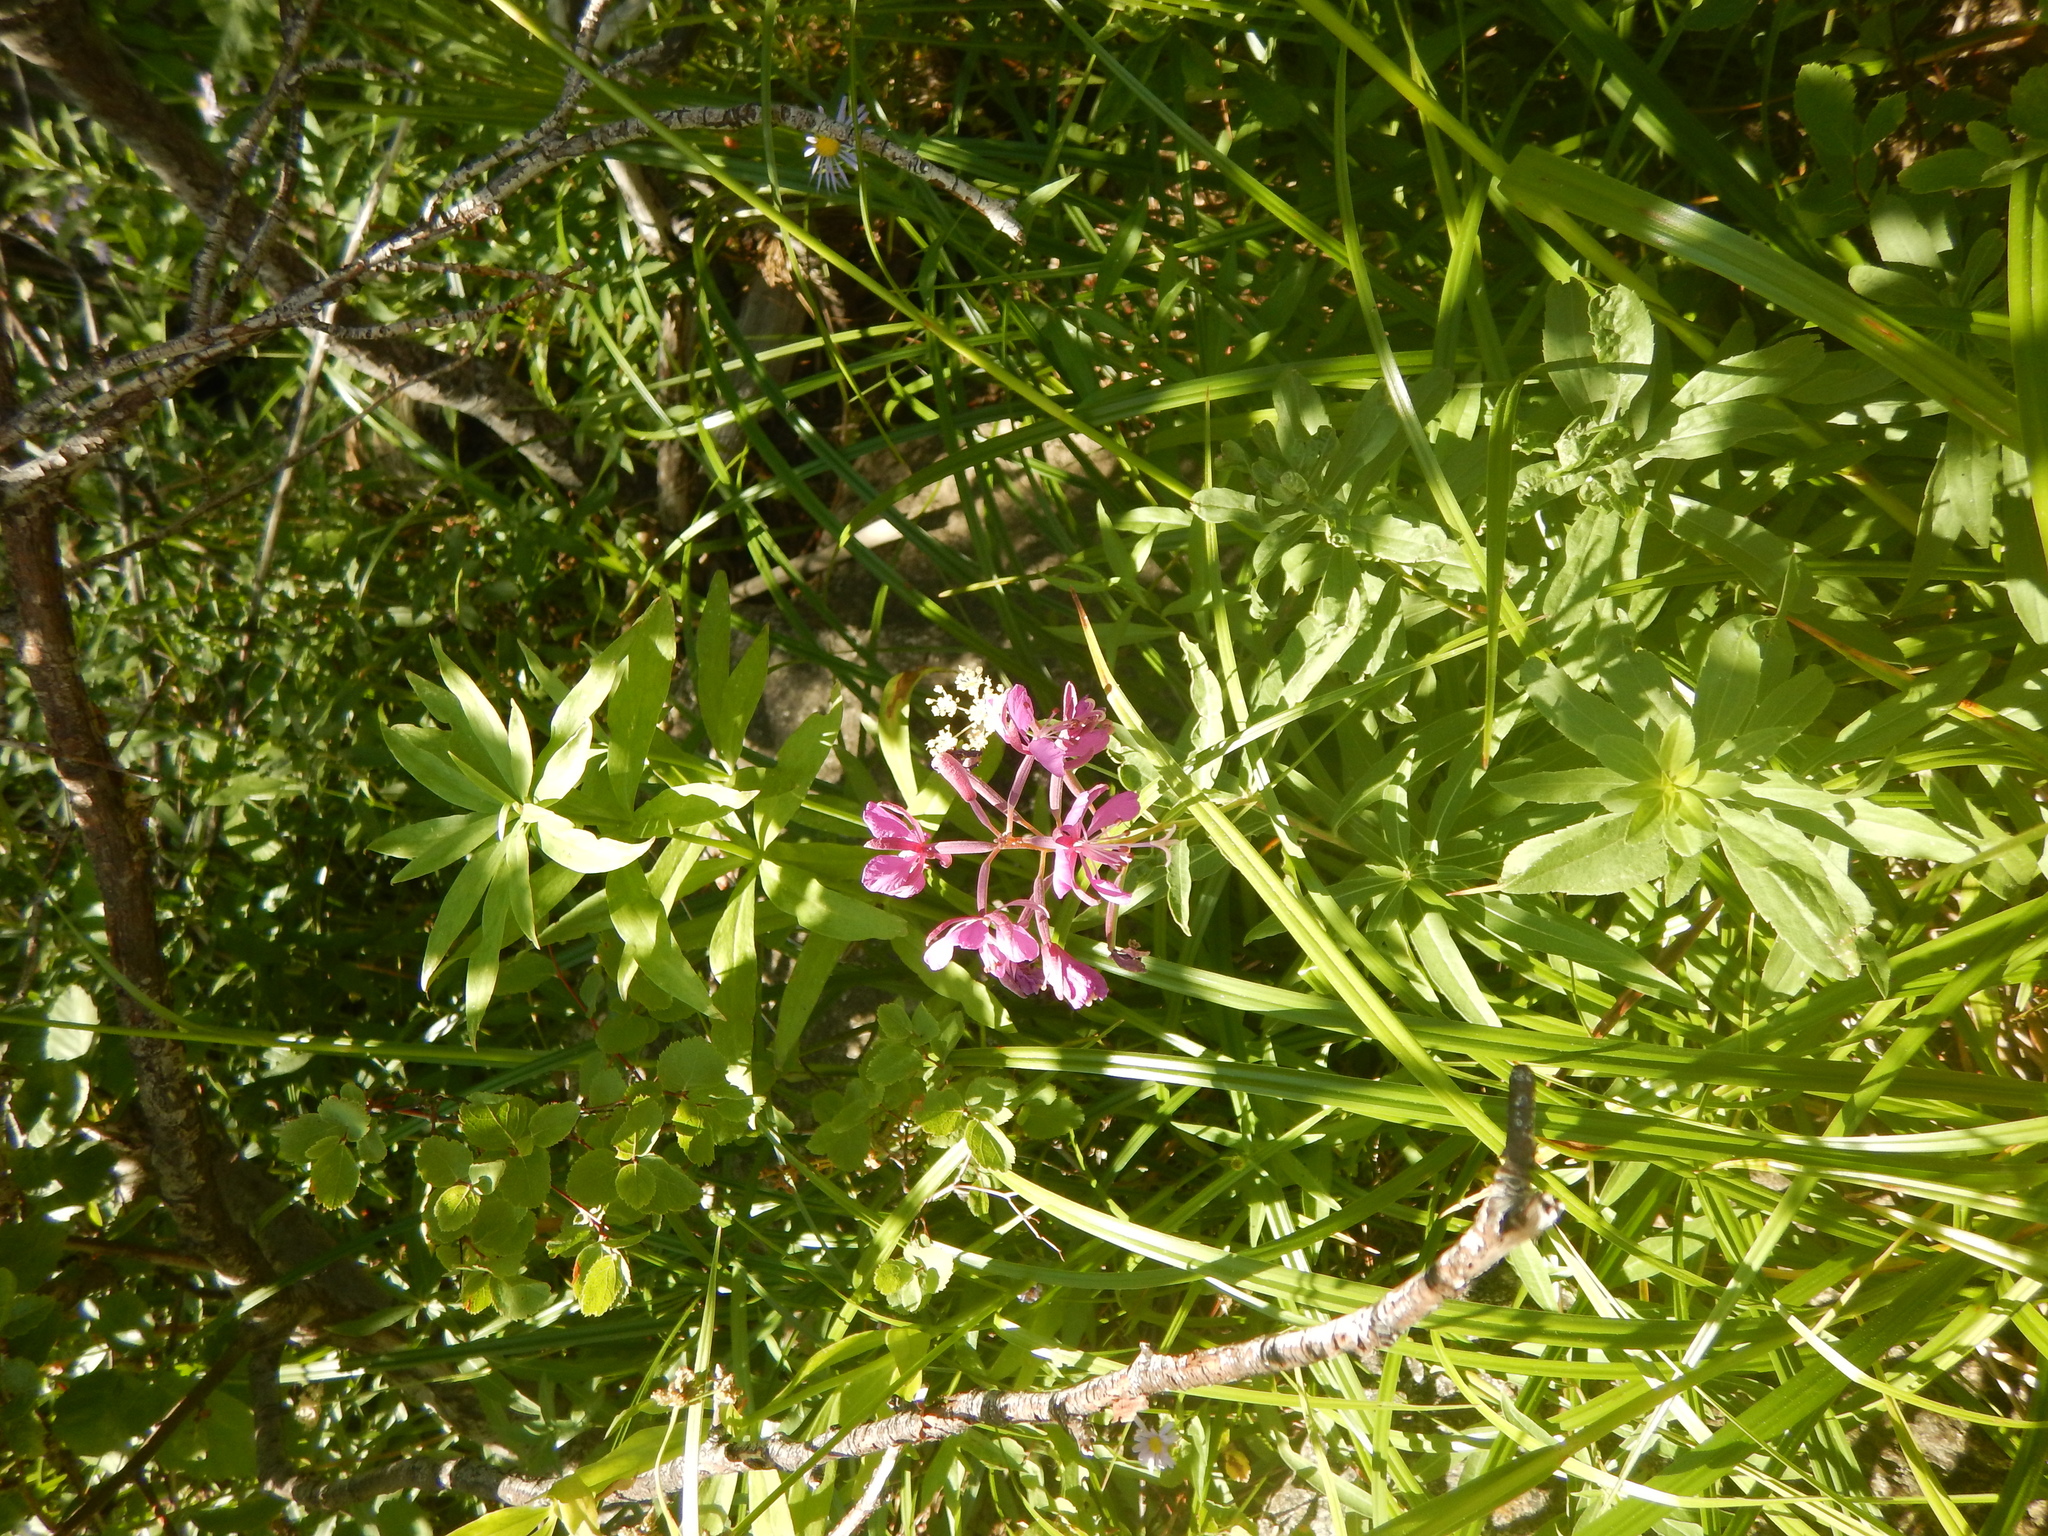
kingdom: Plantae
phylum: Tracheophyta
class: Magnoliopsida
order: Myrtales
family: Onagraceae
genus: Chamaenerion
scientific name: Chamaenerion angustifolium
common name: Fireweed
